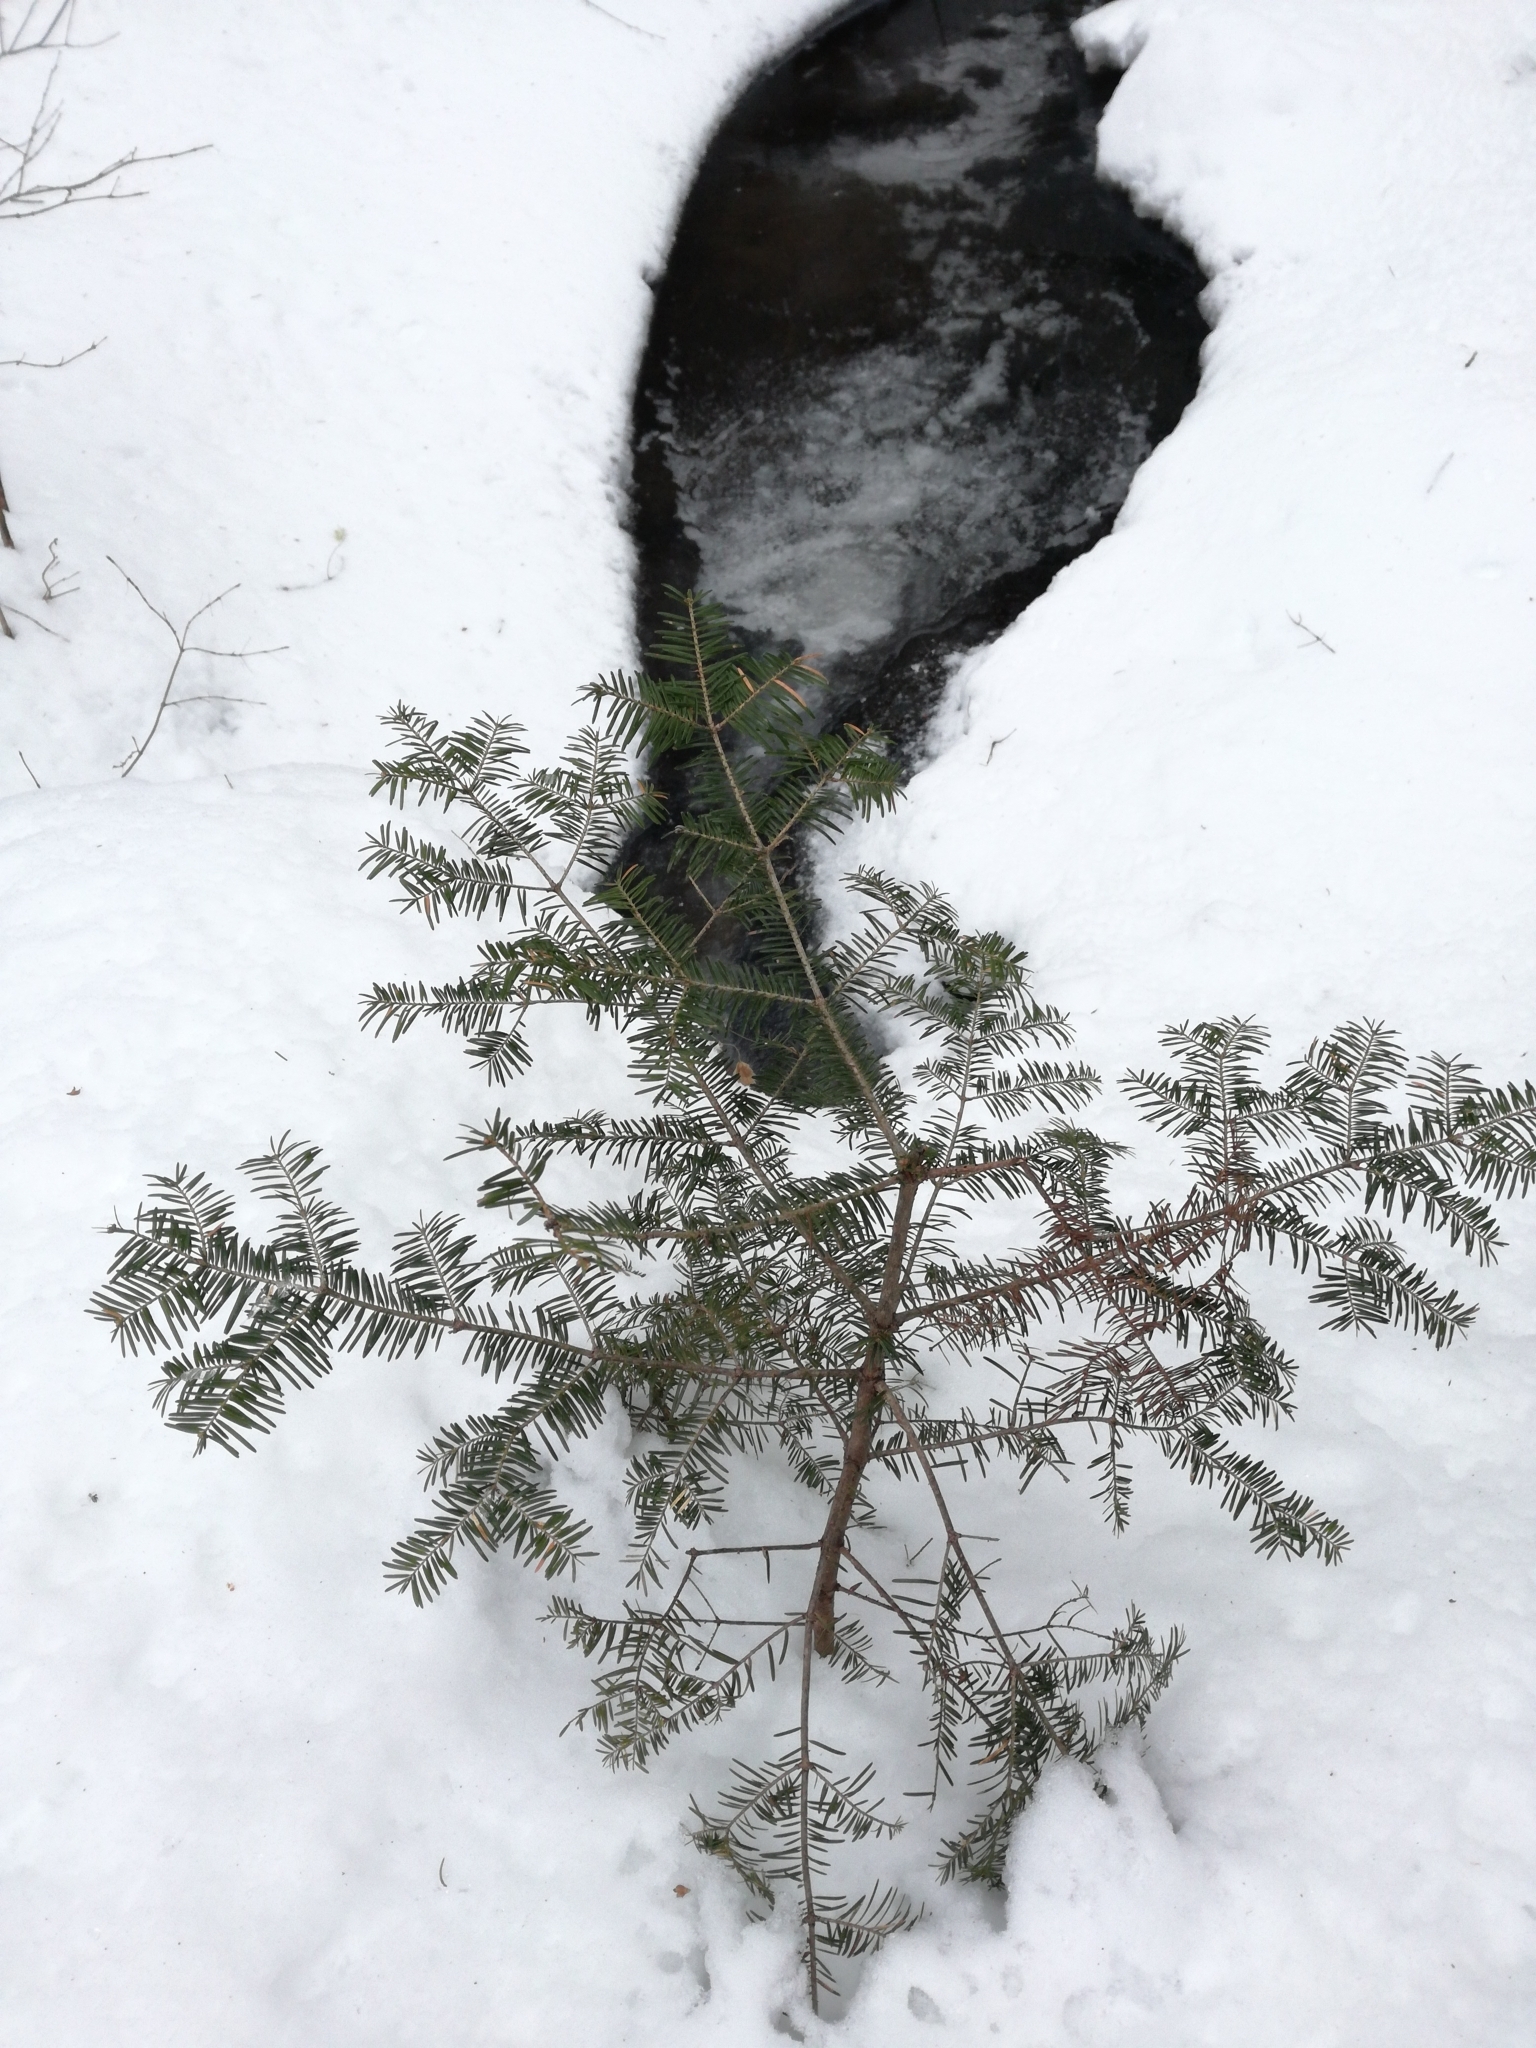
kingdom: Plantae
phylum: Tracheophyta
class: Pinopsida
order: Pinales
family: Pinaceae
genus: Abies
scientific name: Abies balsamea
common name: Balsam fir
